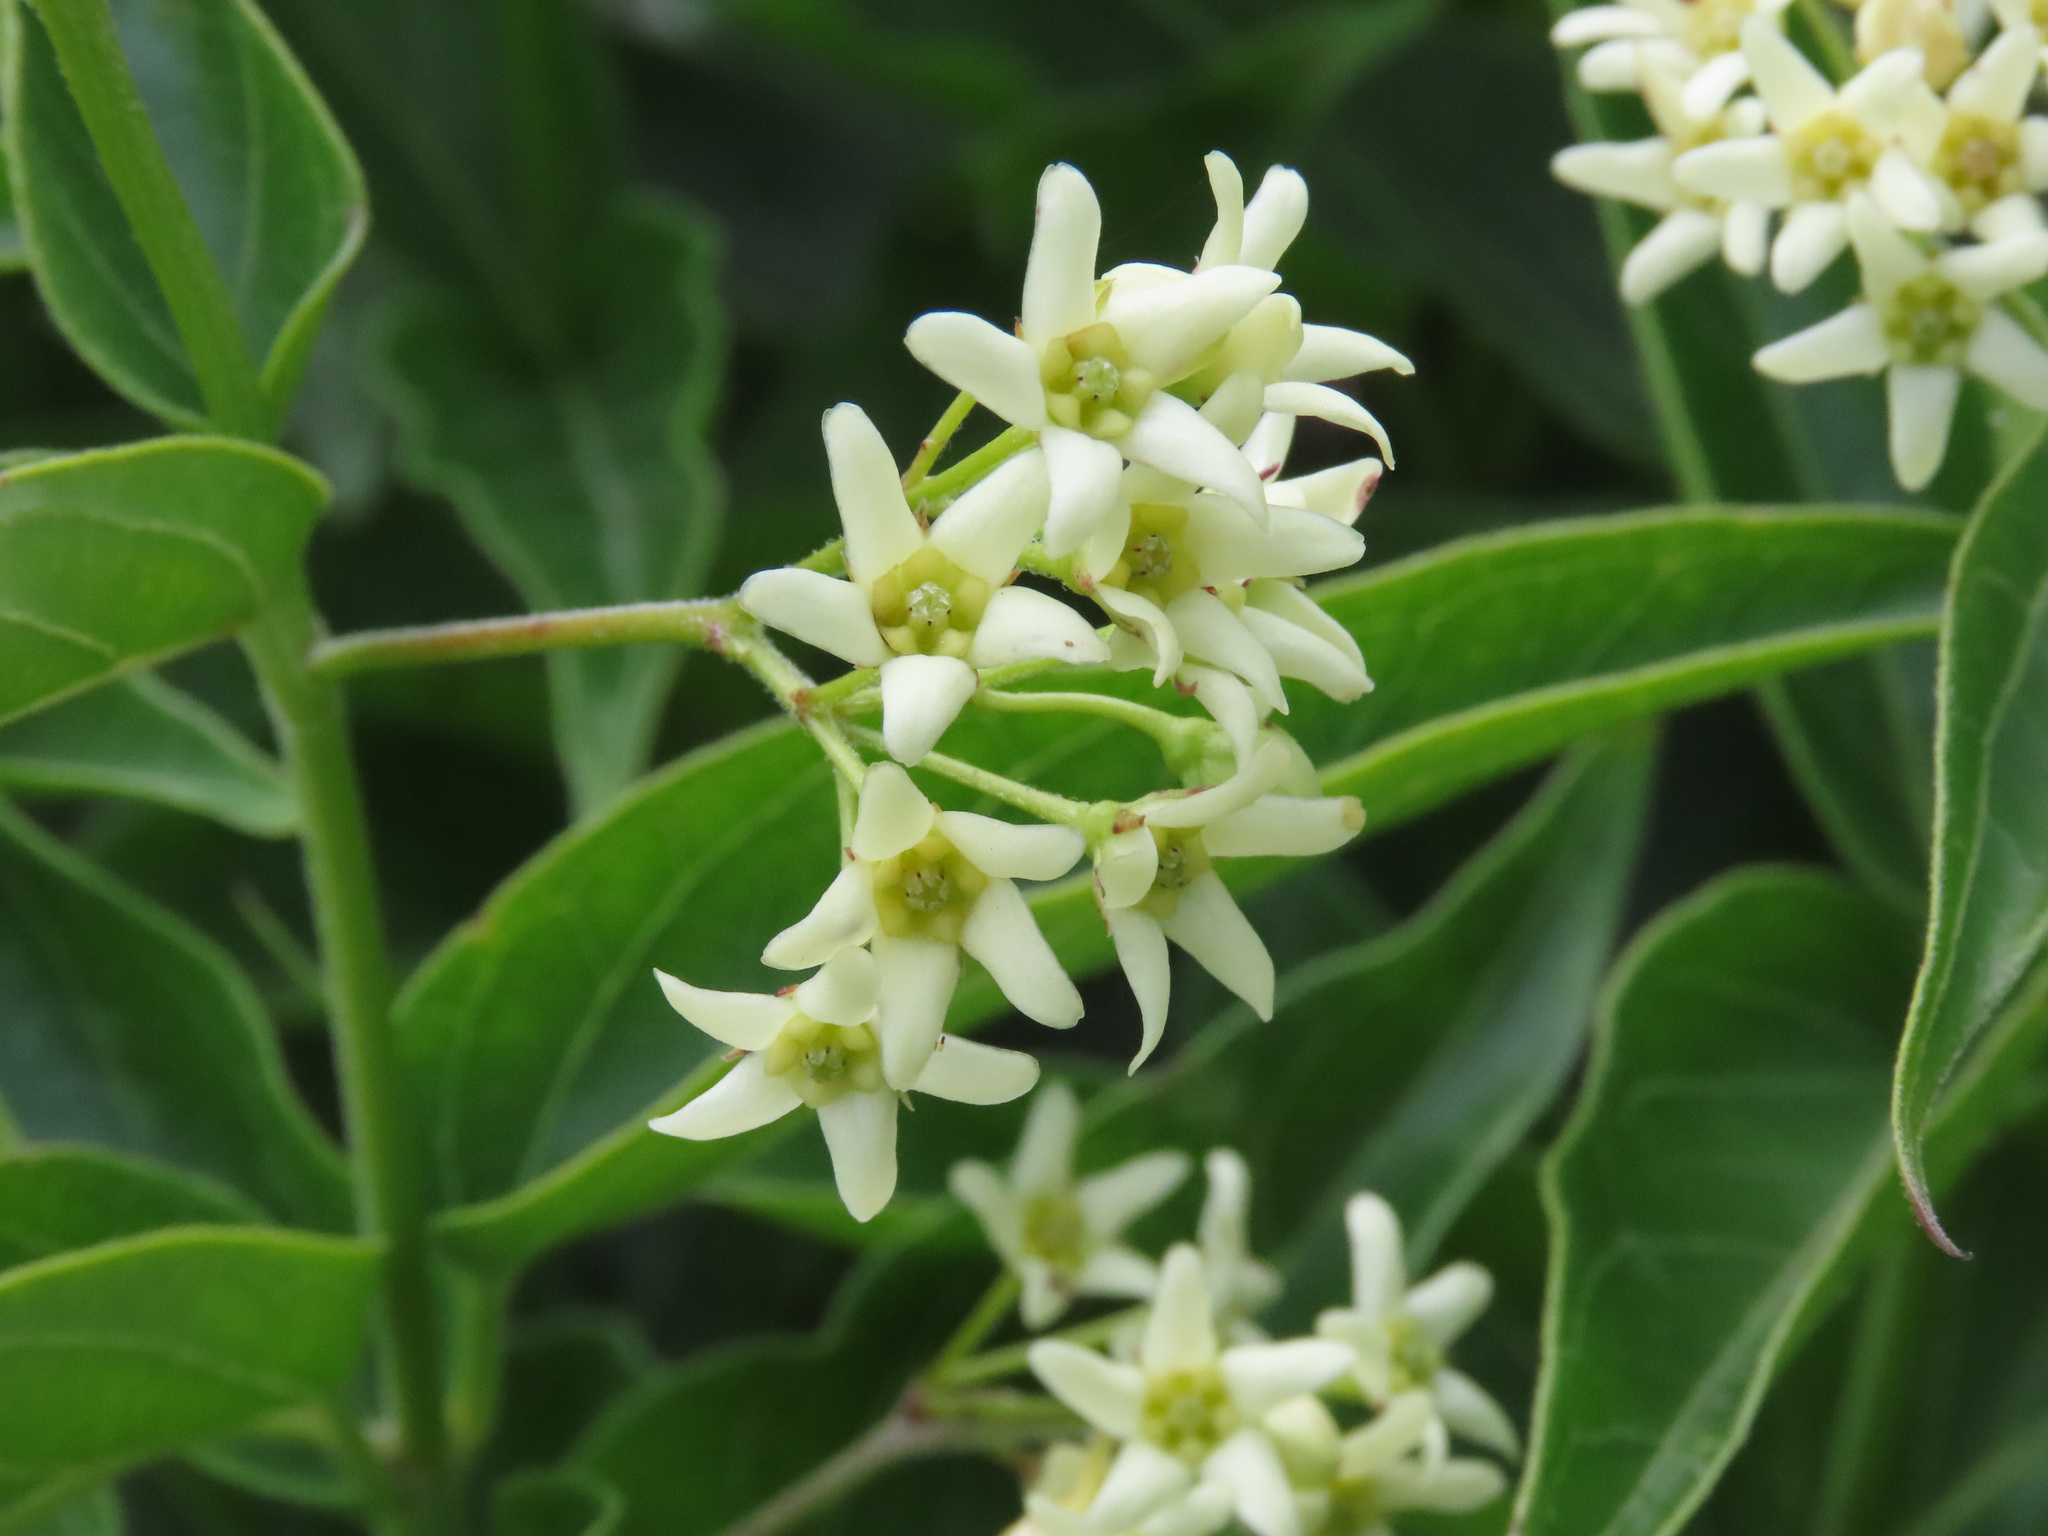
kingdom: Plantae
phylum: Tracheophyta
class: Magnoliopsida
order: Gentianales
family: Apocynaceae
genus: Vincetoxicum
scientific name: Vincetoxicum hirundinaria
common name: White swallowwort
